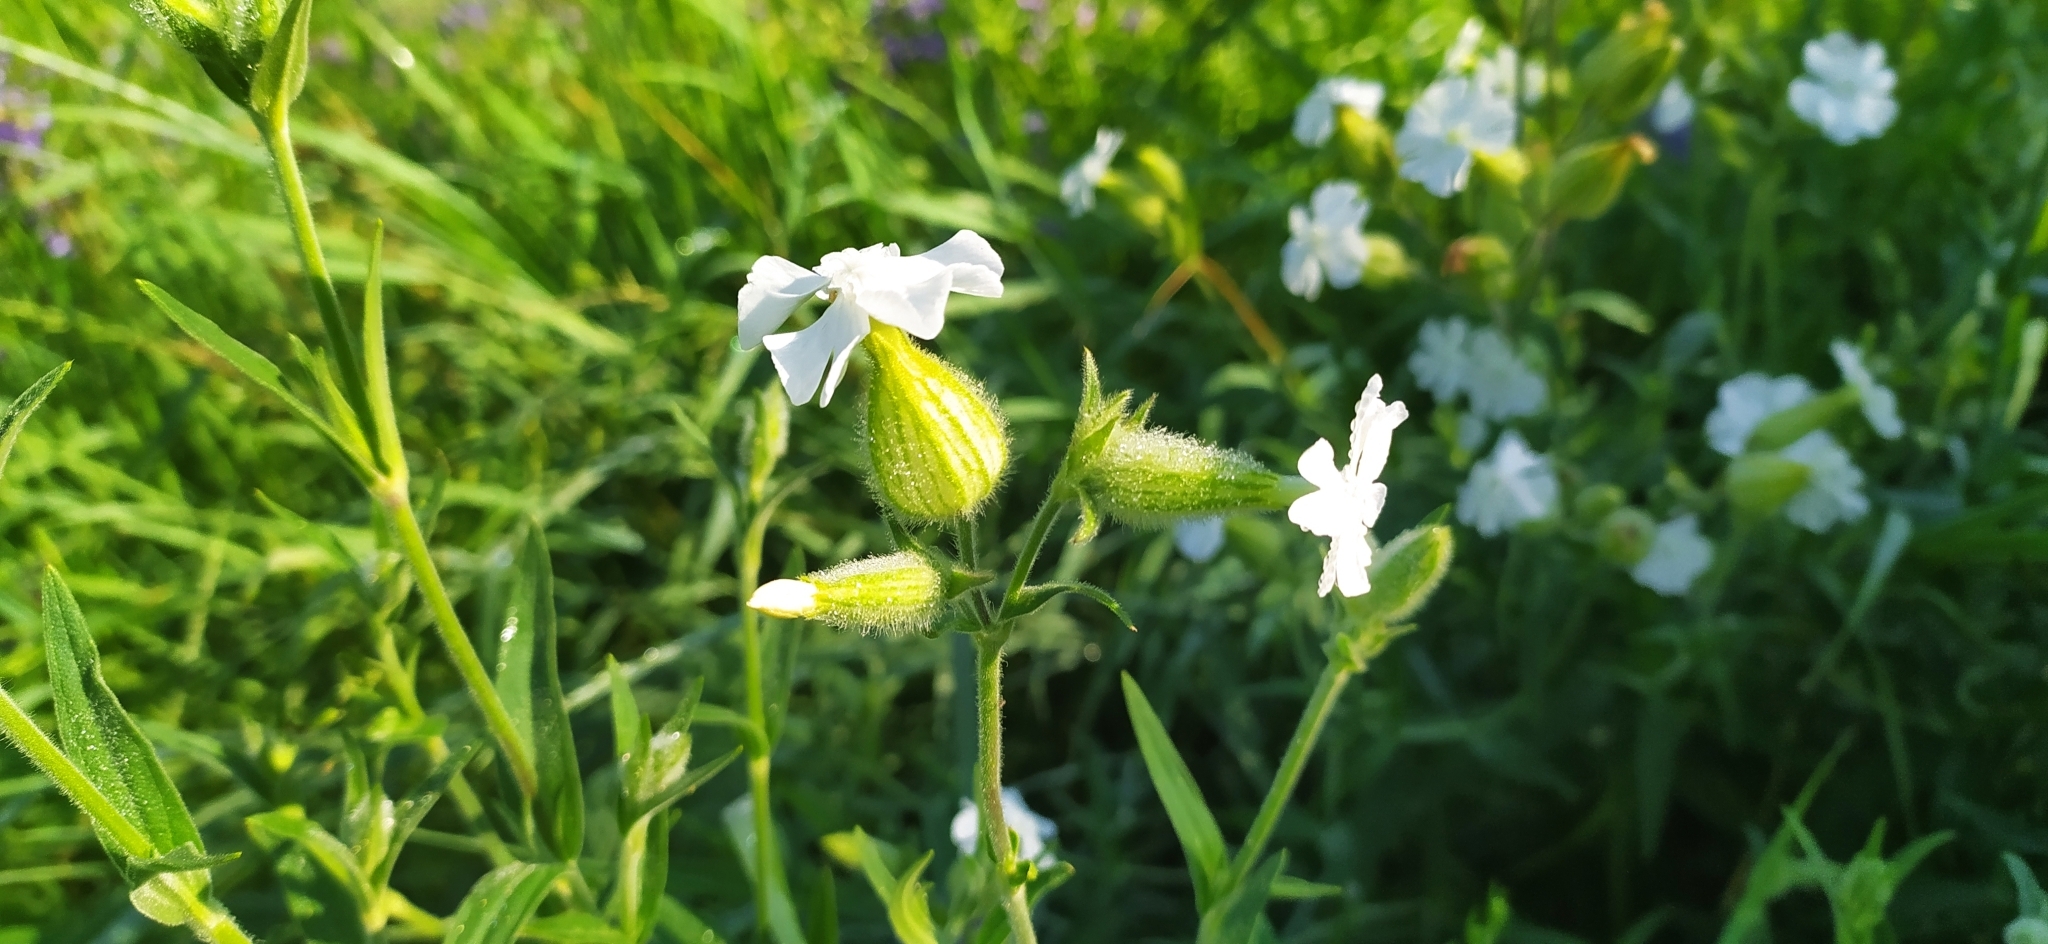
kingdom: Plantae
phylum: Tracheophyta
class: Magnoliopsida
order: Caryophyllales
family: Caryophyllaceae
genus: Silene
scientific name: Silene latifolia
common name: White campion
